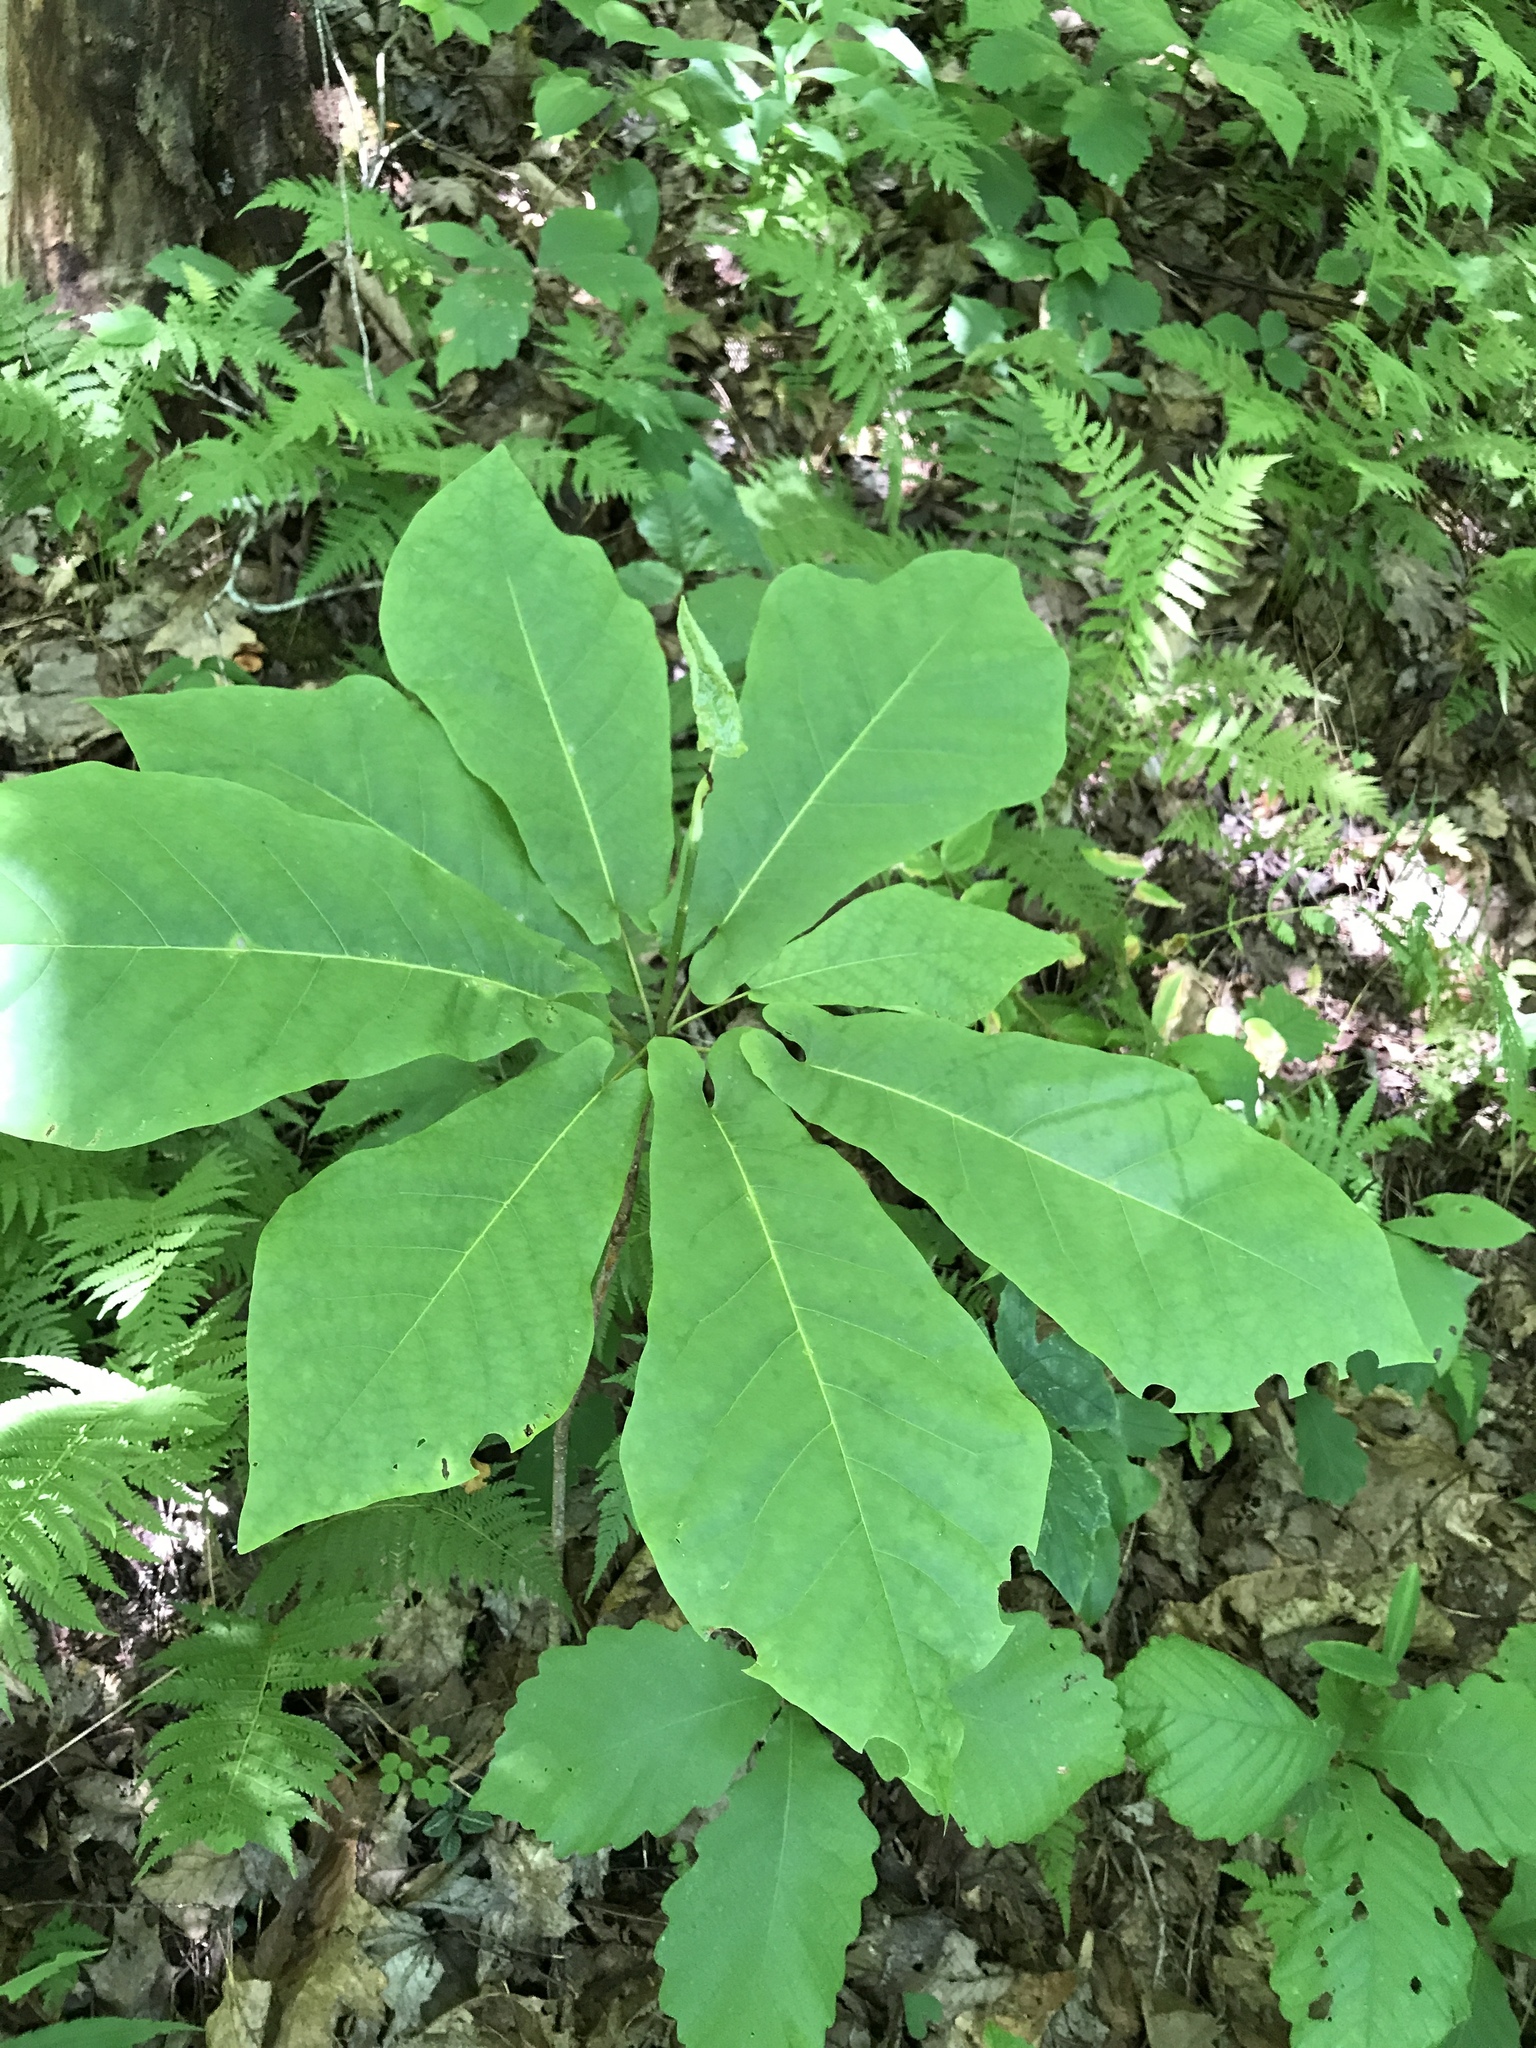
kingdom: Plantae
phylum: Tracheophyta
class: Magnoliopsida
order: Magnoliales
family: Magnoliaceae
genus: Magnolia
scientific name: Magnolia fraseri
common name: Fraser's magnolia
